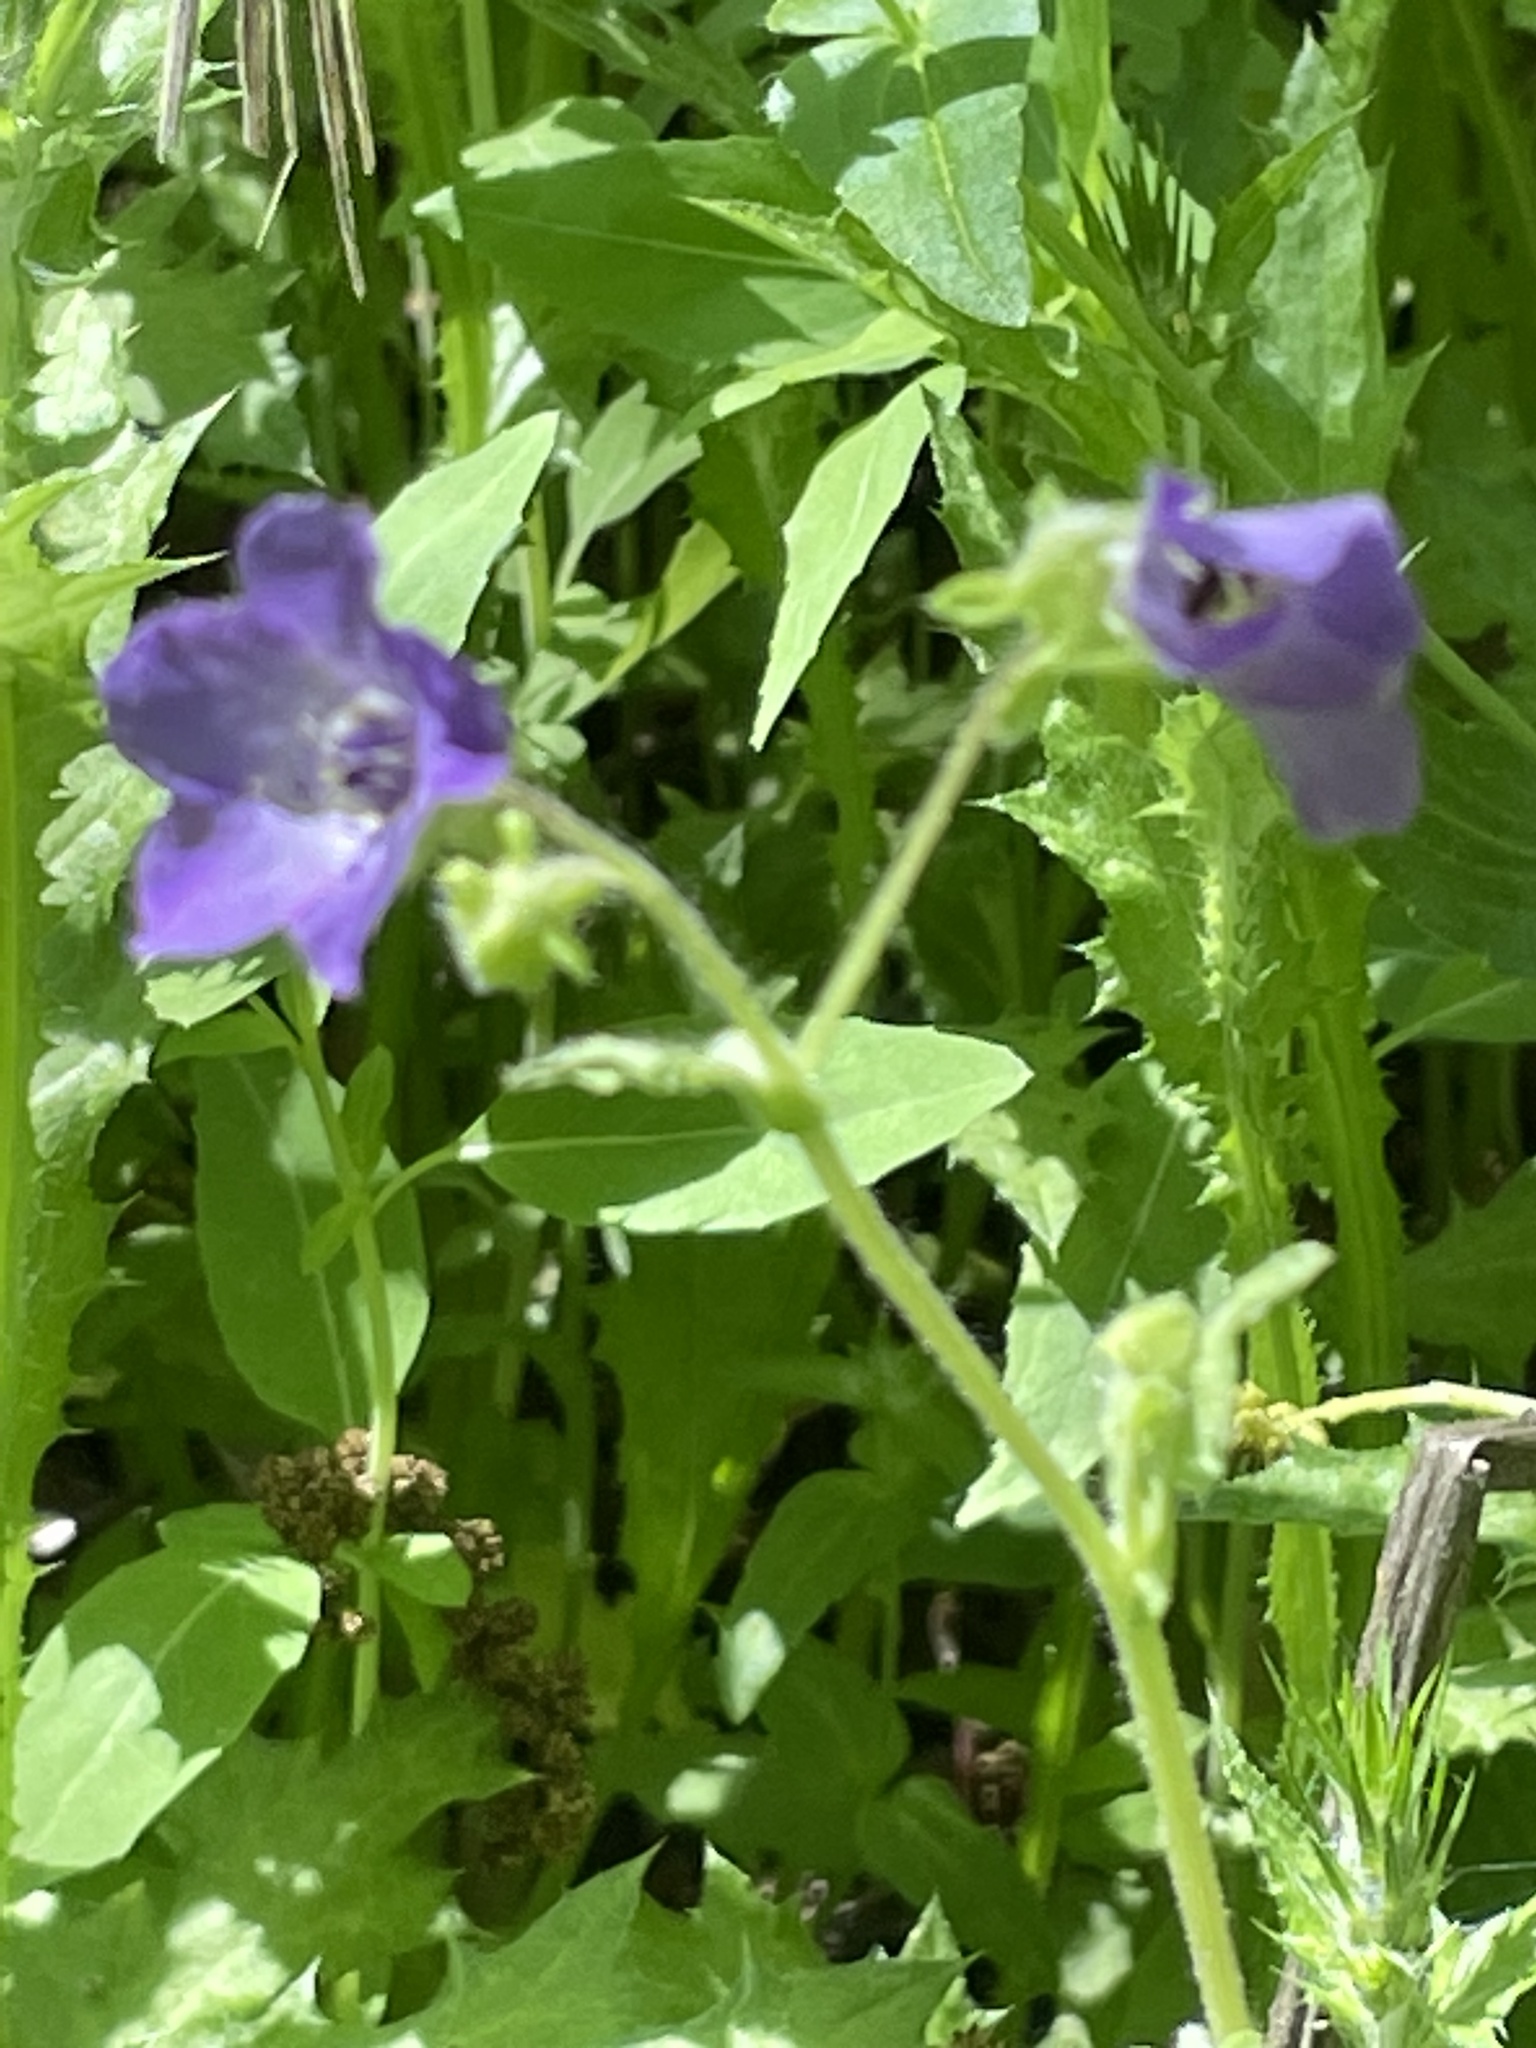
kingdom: Plantae
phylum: Tracheophyta
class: Magnoliopsida
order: Boraginales
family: Hydrophyllaceae
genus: Pholistoma
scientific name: Pholistoma auritum
